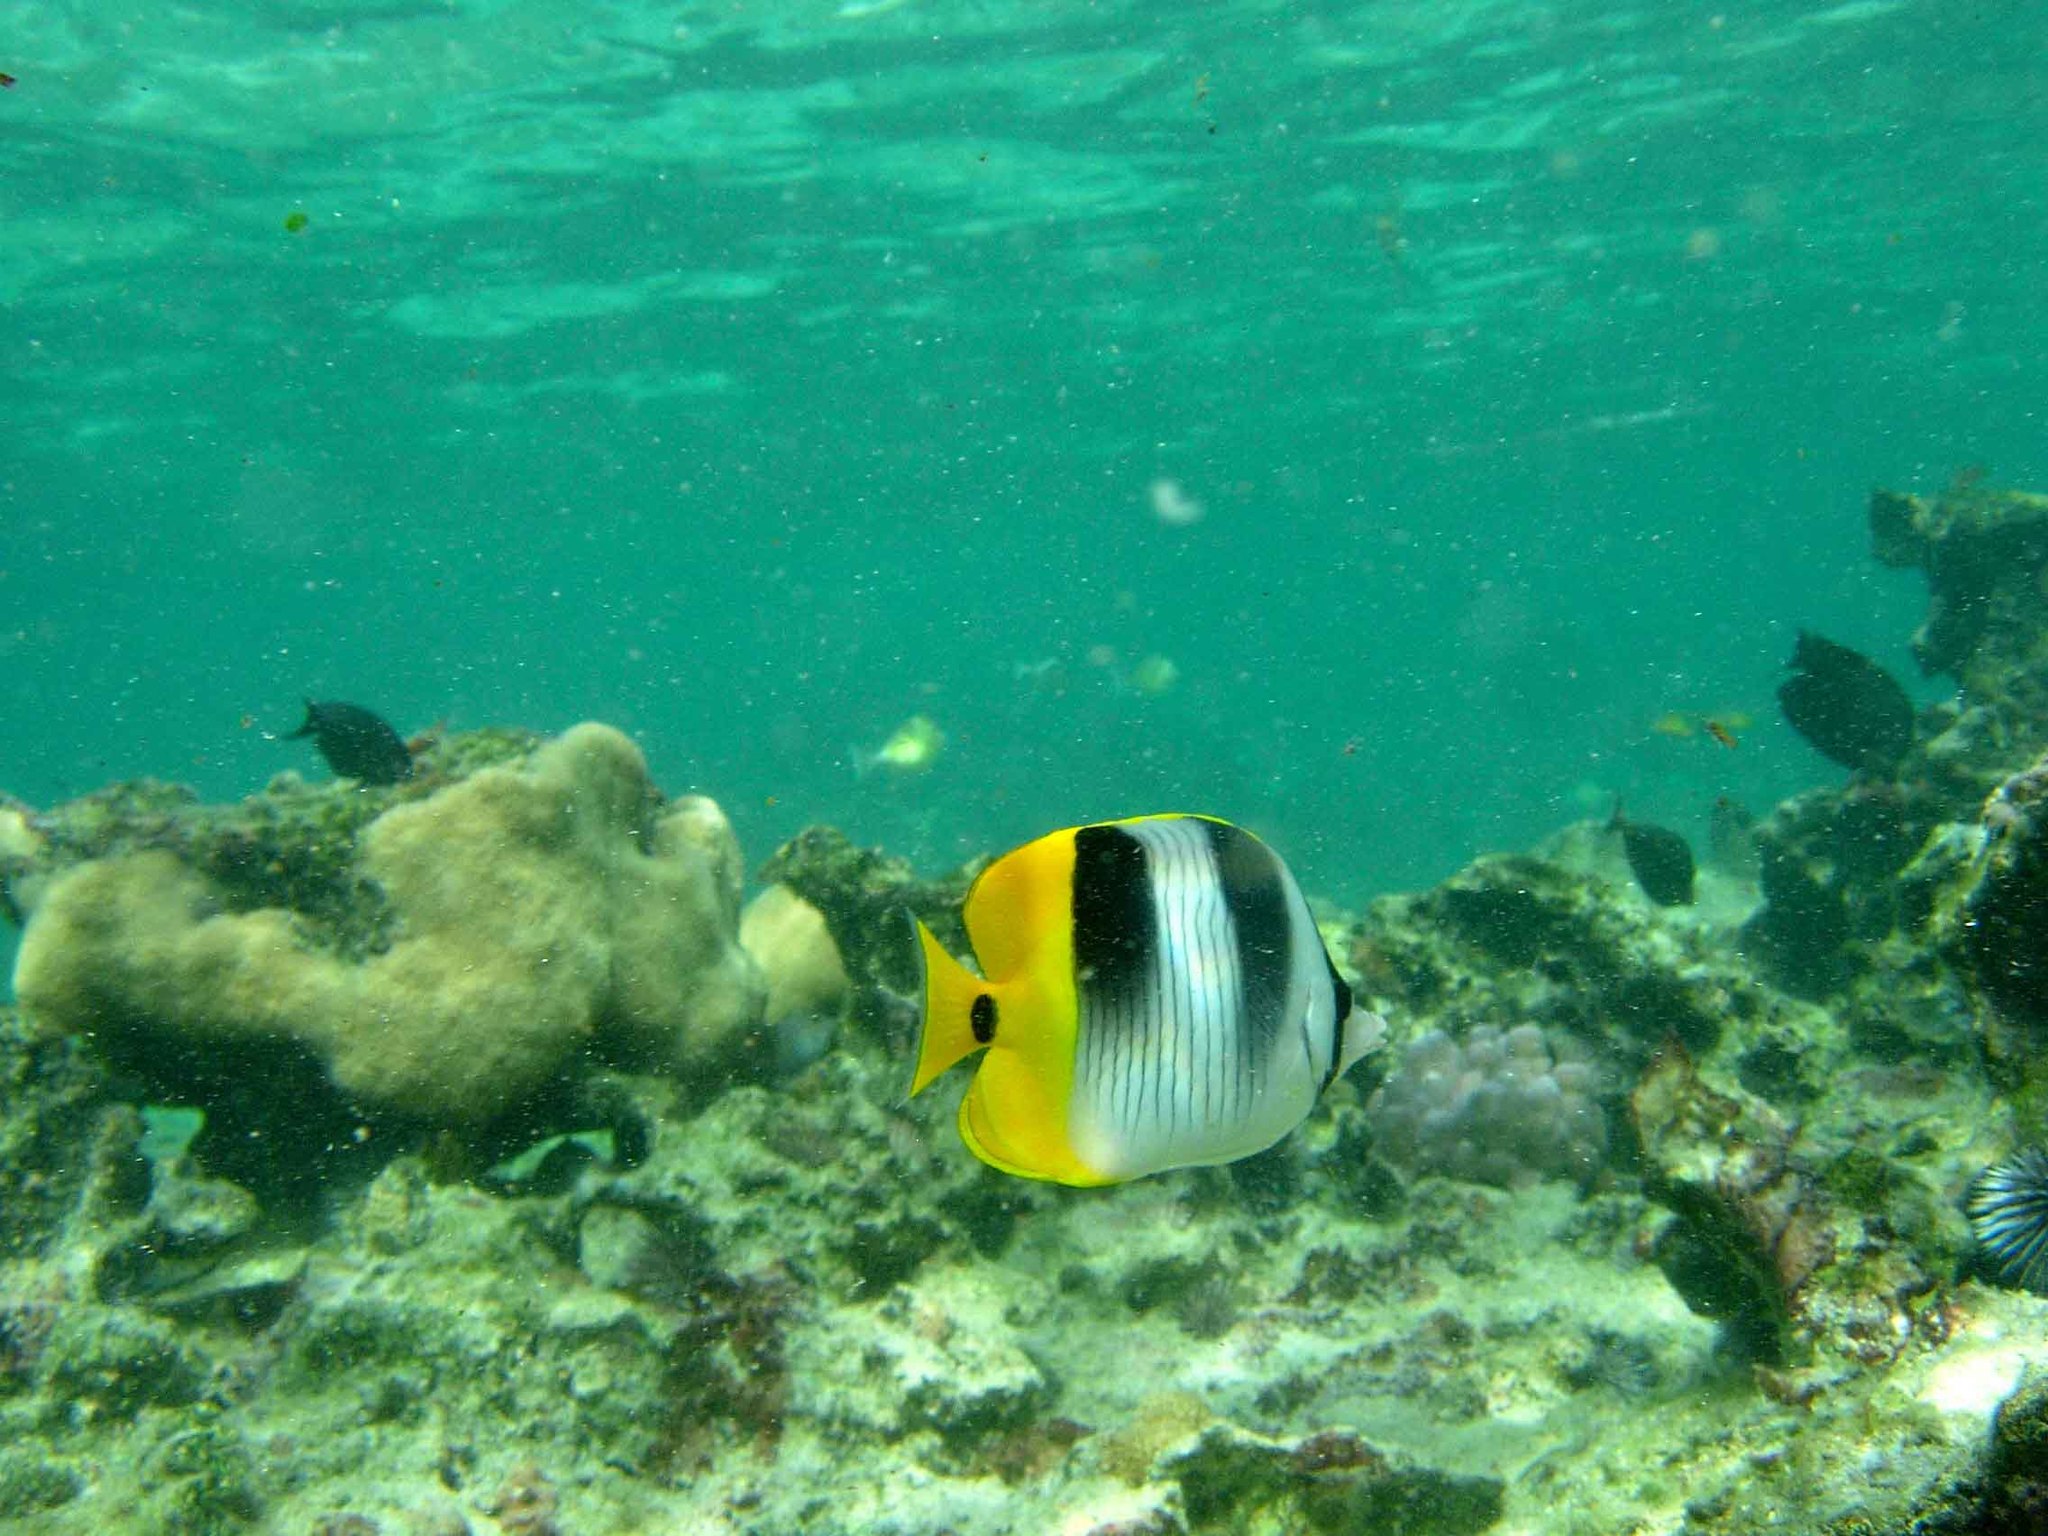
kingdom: Animalia
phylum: Chordata
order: Perciformes
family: Chaetodontidae
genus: Chaetodon
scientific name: Chaetodon ulietensis
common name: Pacific double-saddle butterflyfish
